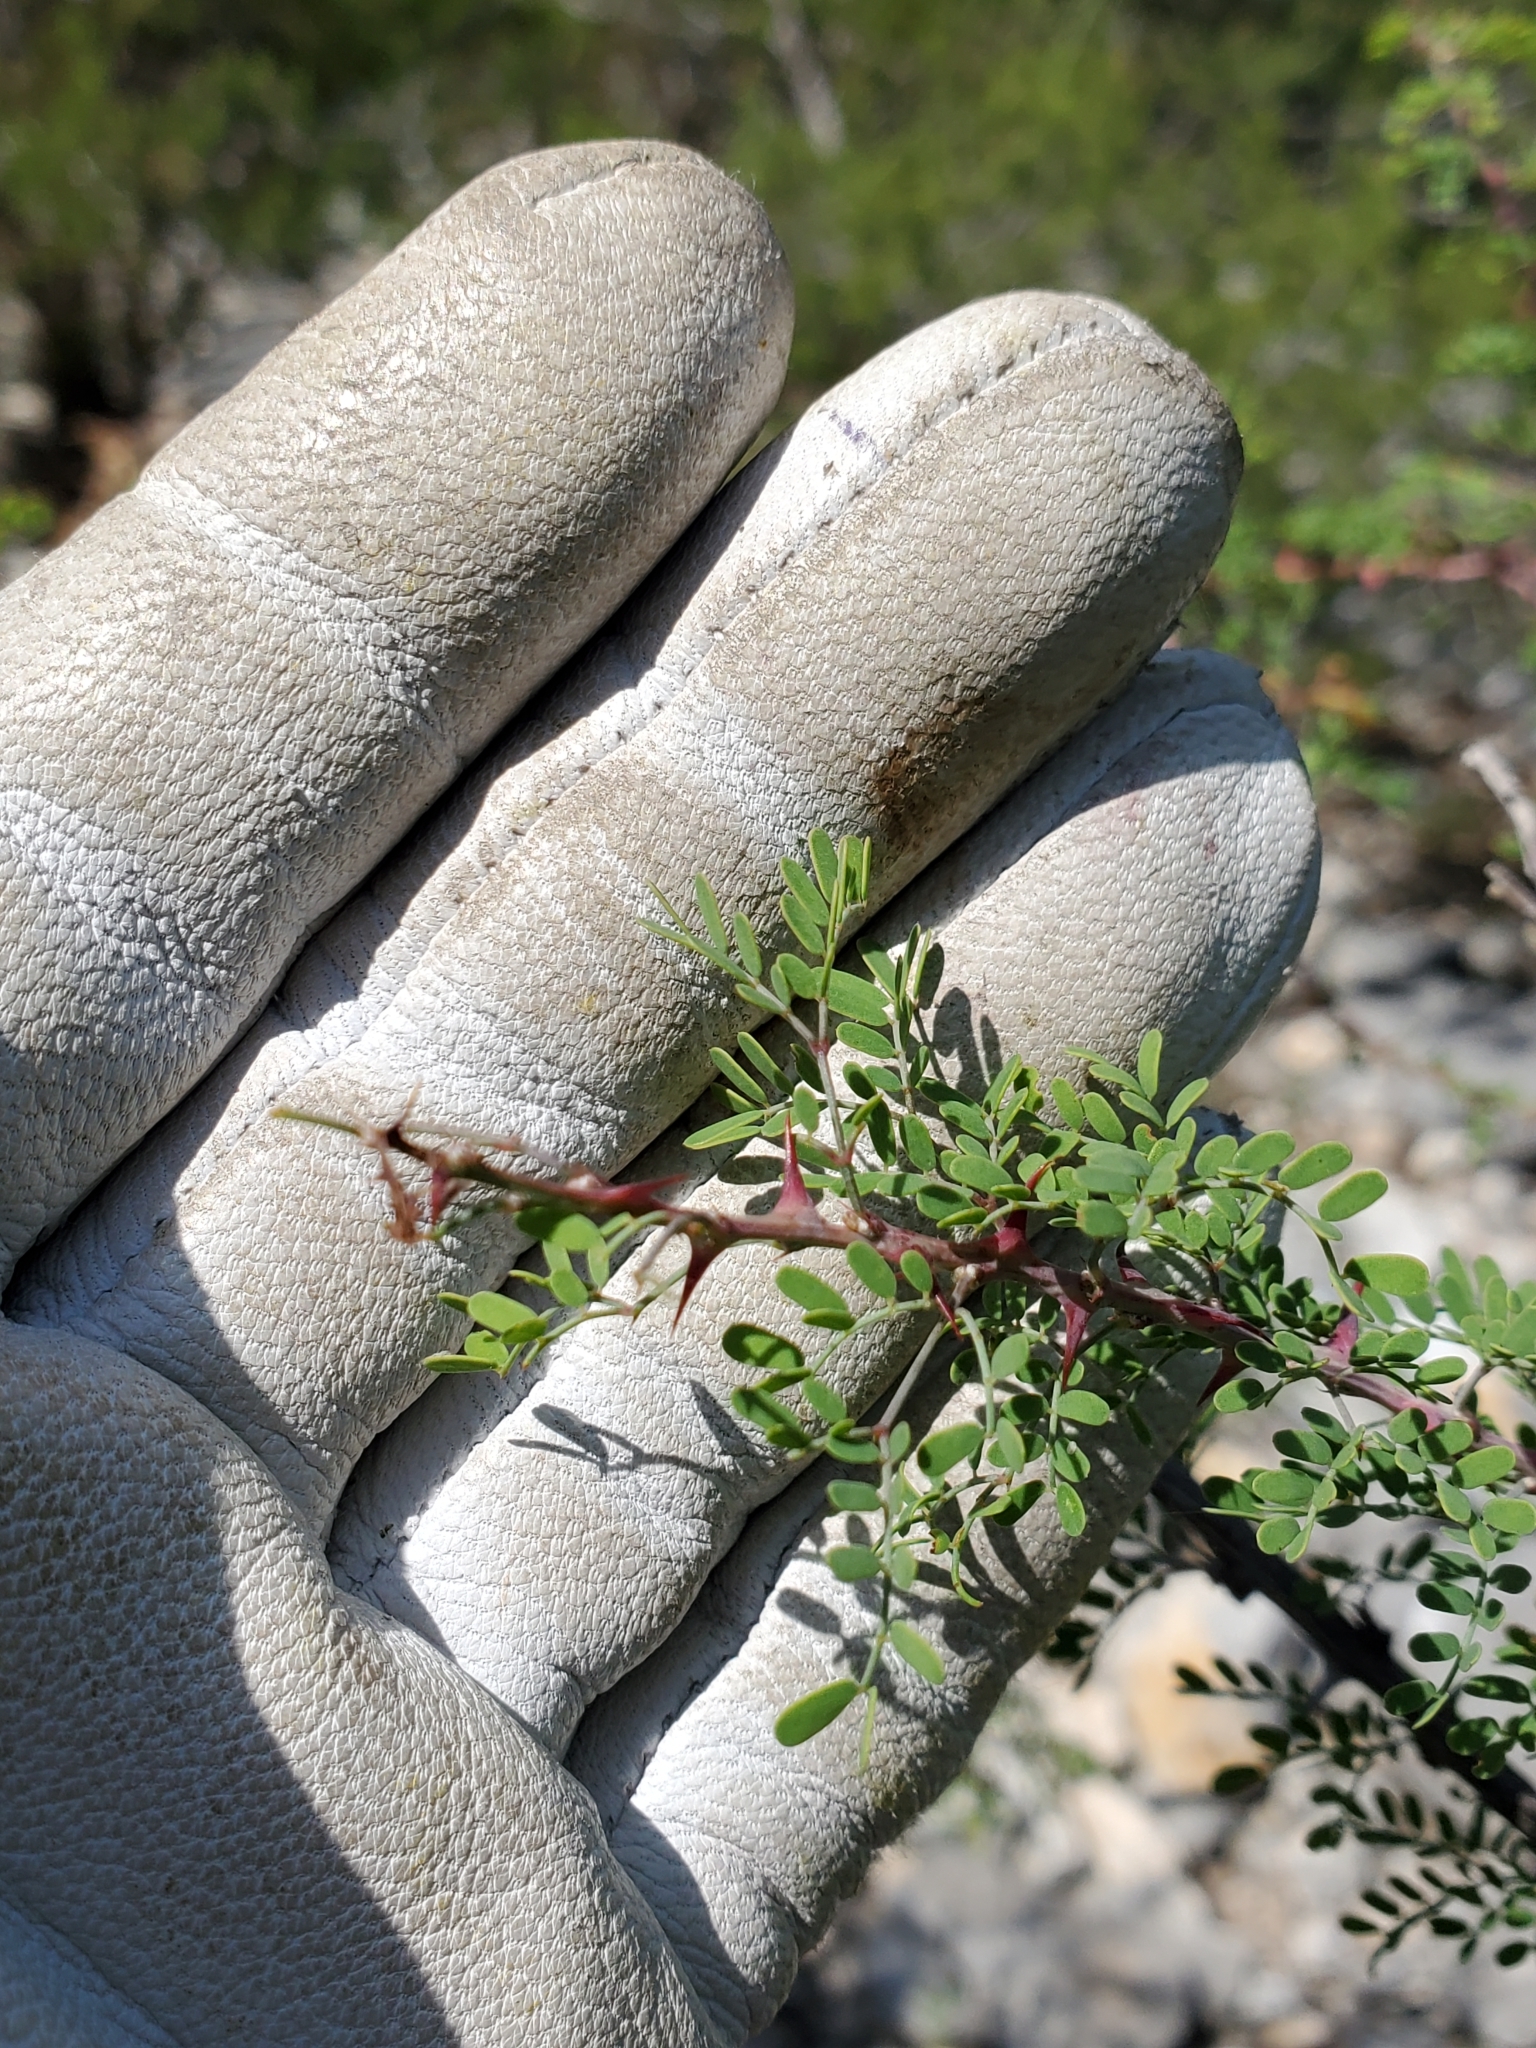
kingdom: Plantae
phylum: Tracheophyta
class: Magnoliopsida
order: Fabales
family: Fabaceae
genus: Mimosa
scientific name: Mimosa borealis
